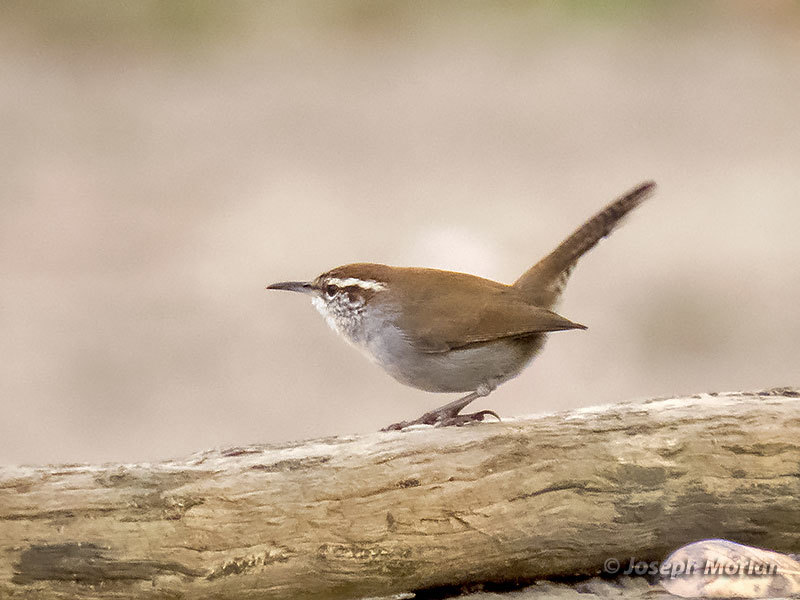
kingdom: Animalia
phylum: Chordata
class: Aves
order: Passeriformes
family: Troglodytidae
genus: Thryomanes
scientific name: Thryomanes bewickii
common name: Bewick's wren
